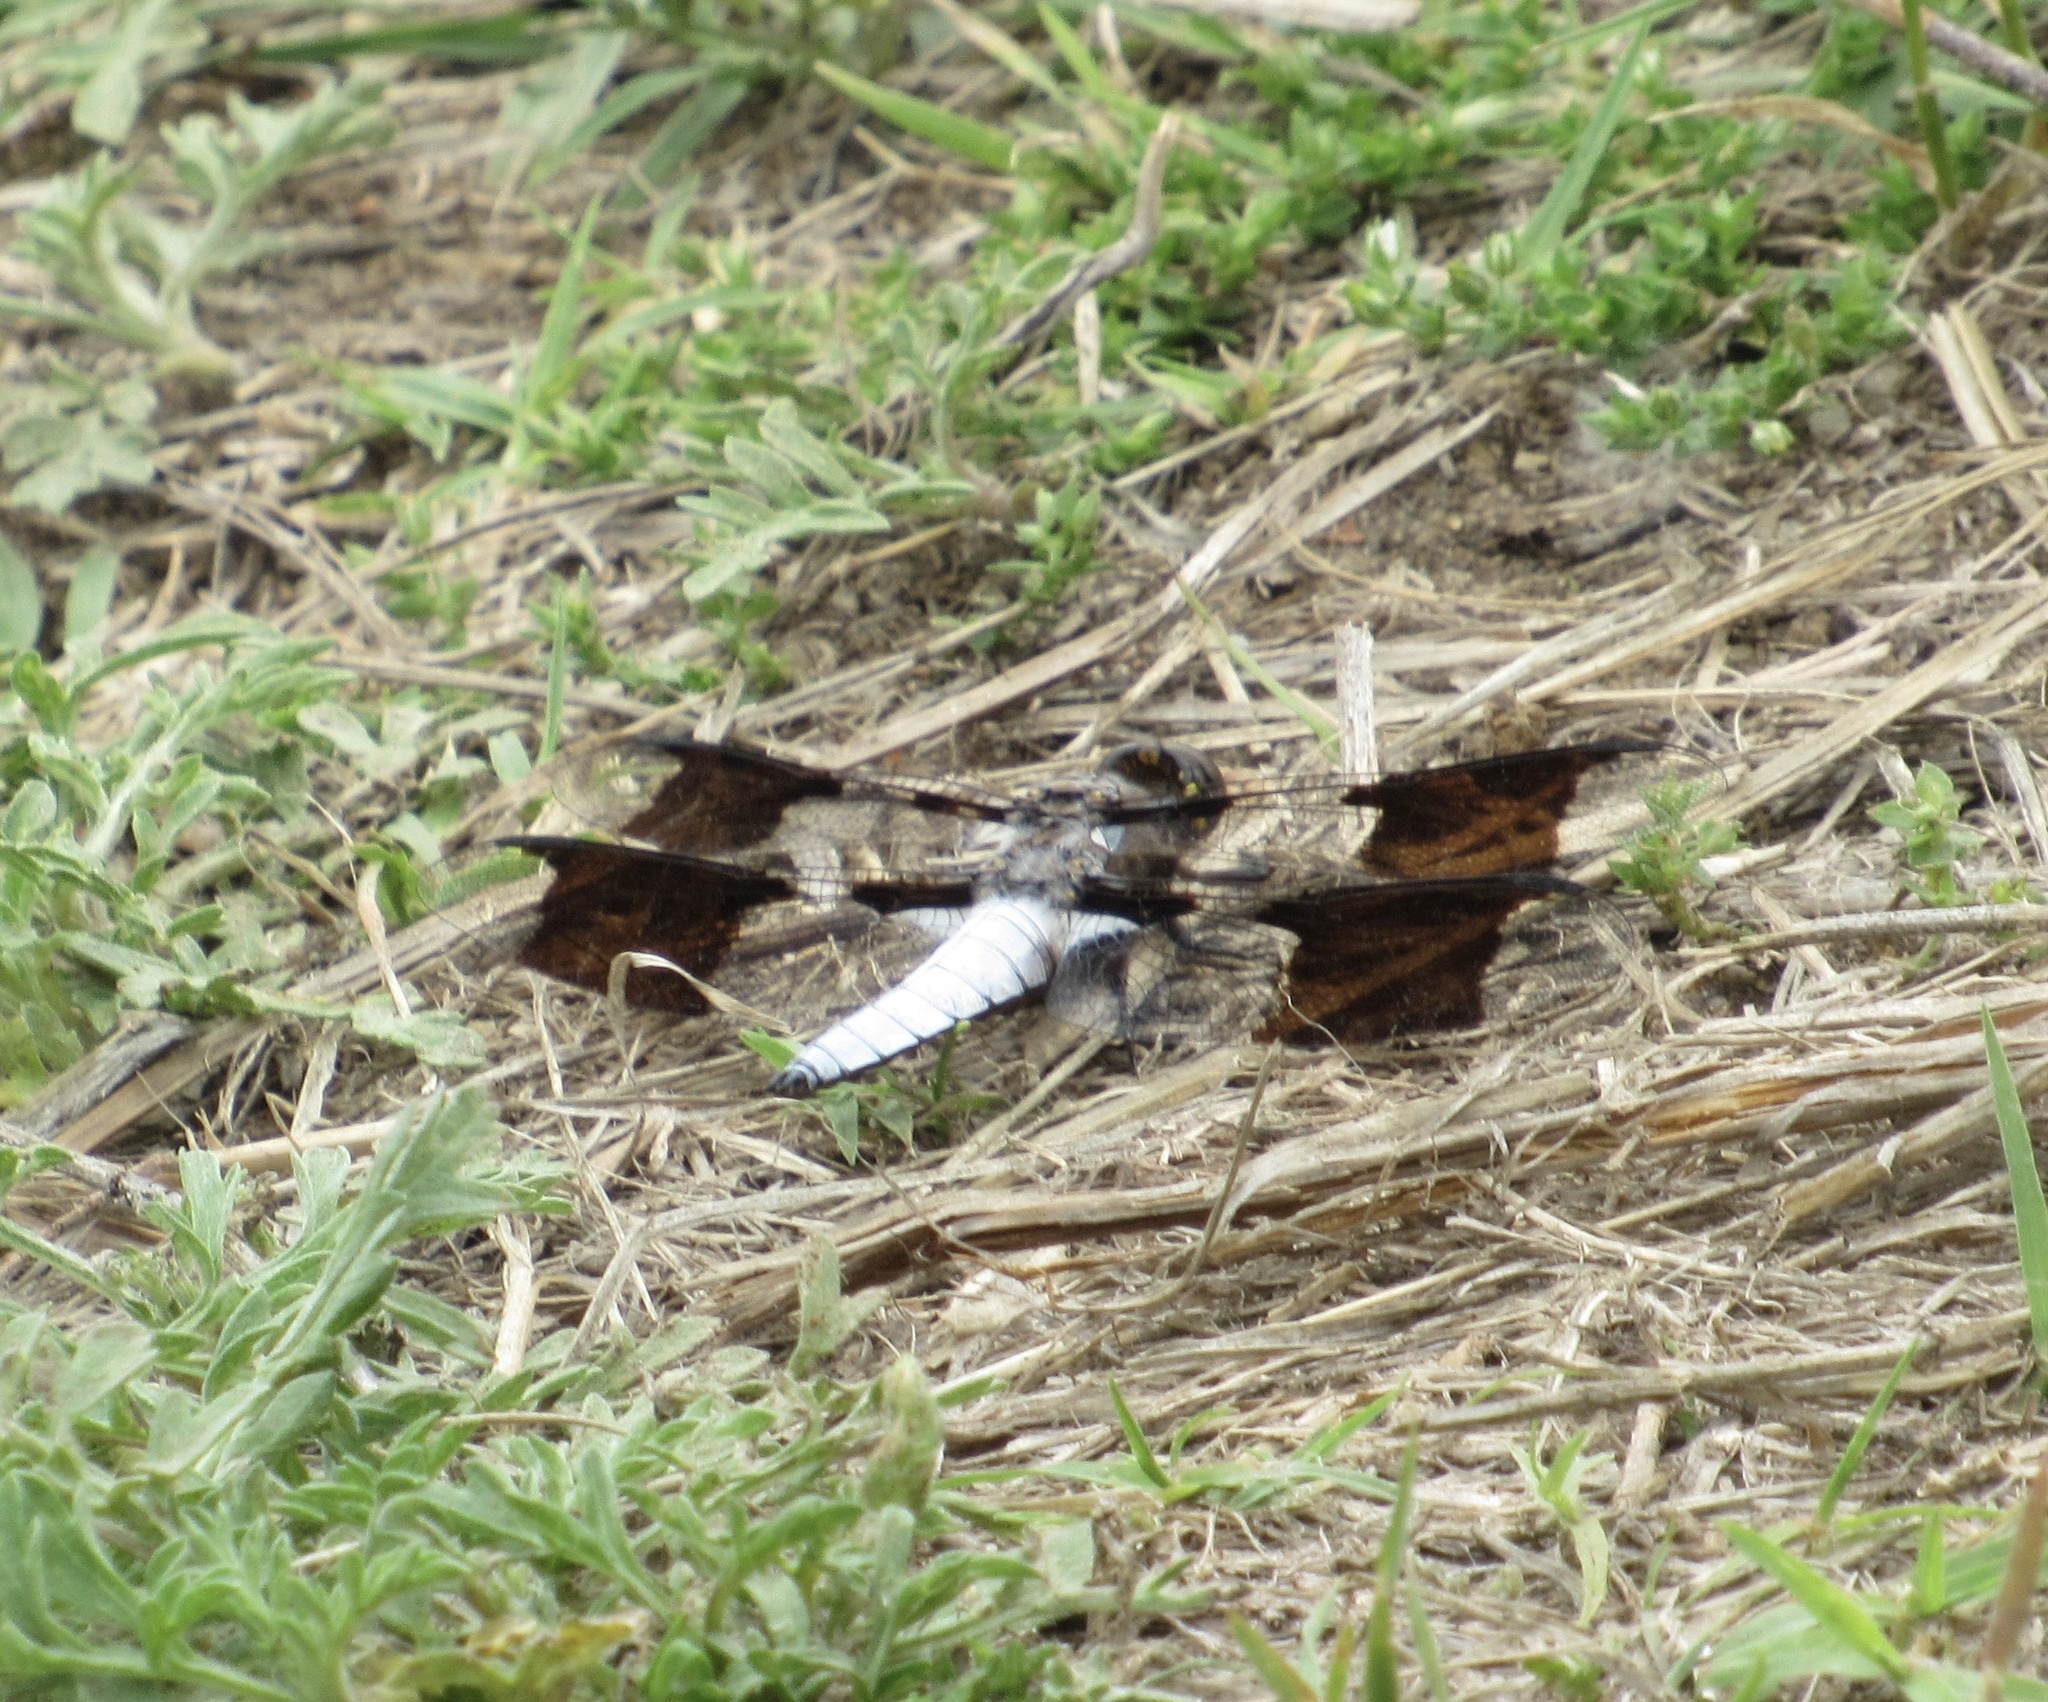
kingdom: Animalia
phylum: Arthropoda
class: Insecta
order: Odonata
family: Libellulidae
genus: Plathemis
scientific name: Plathemis lydia
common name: Common whitetail
